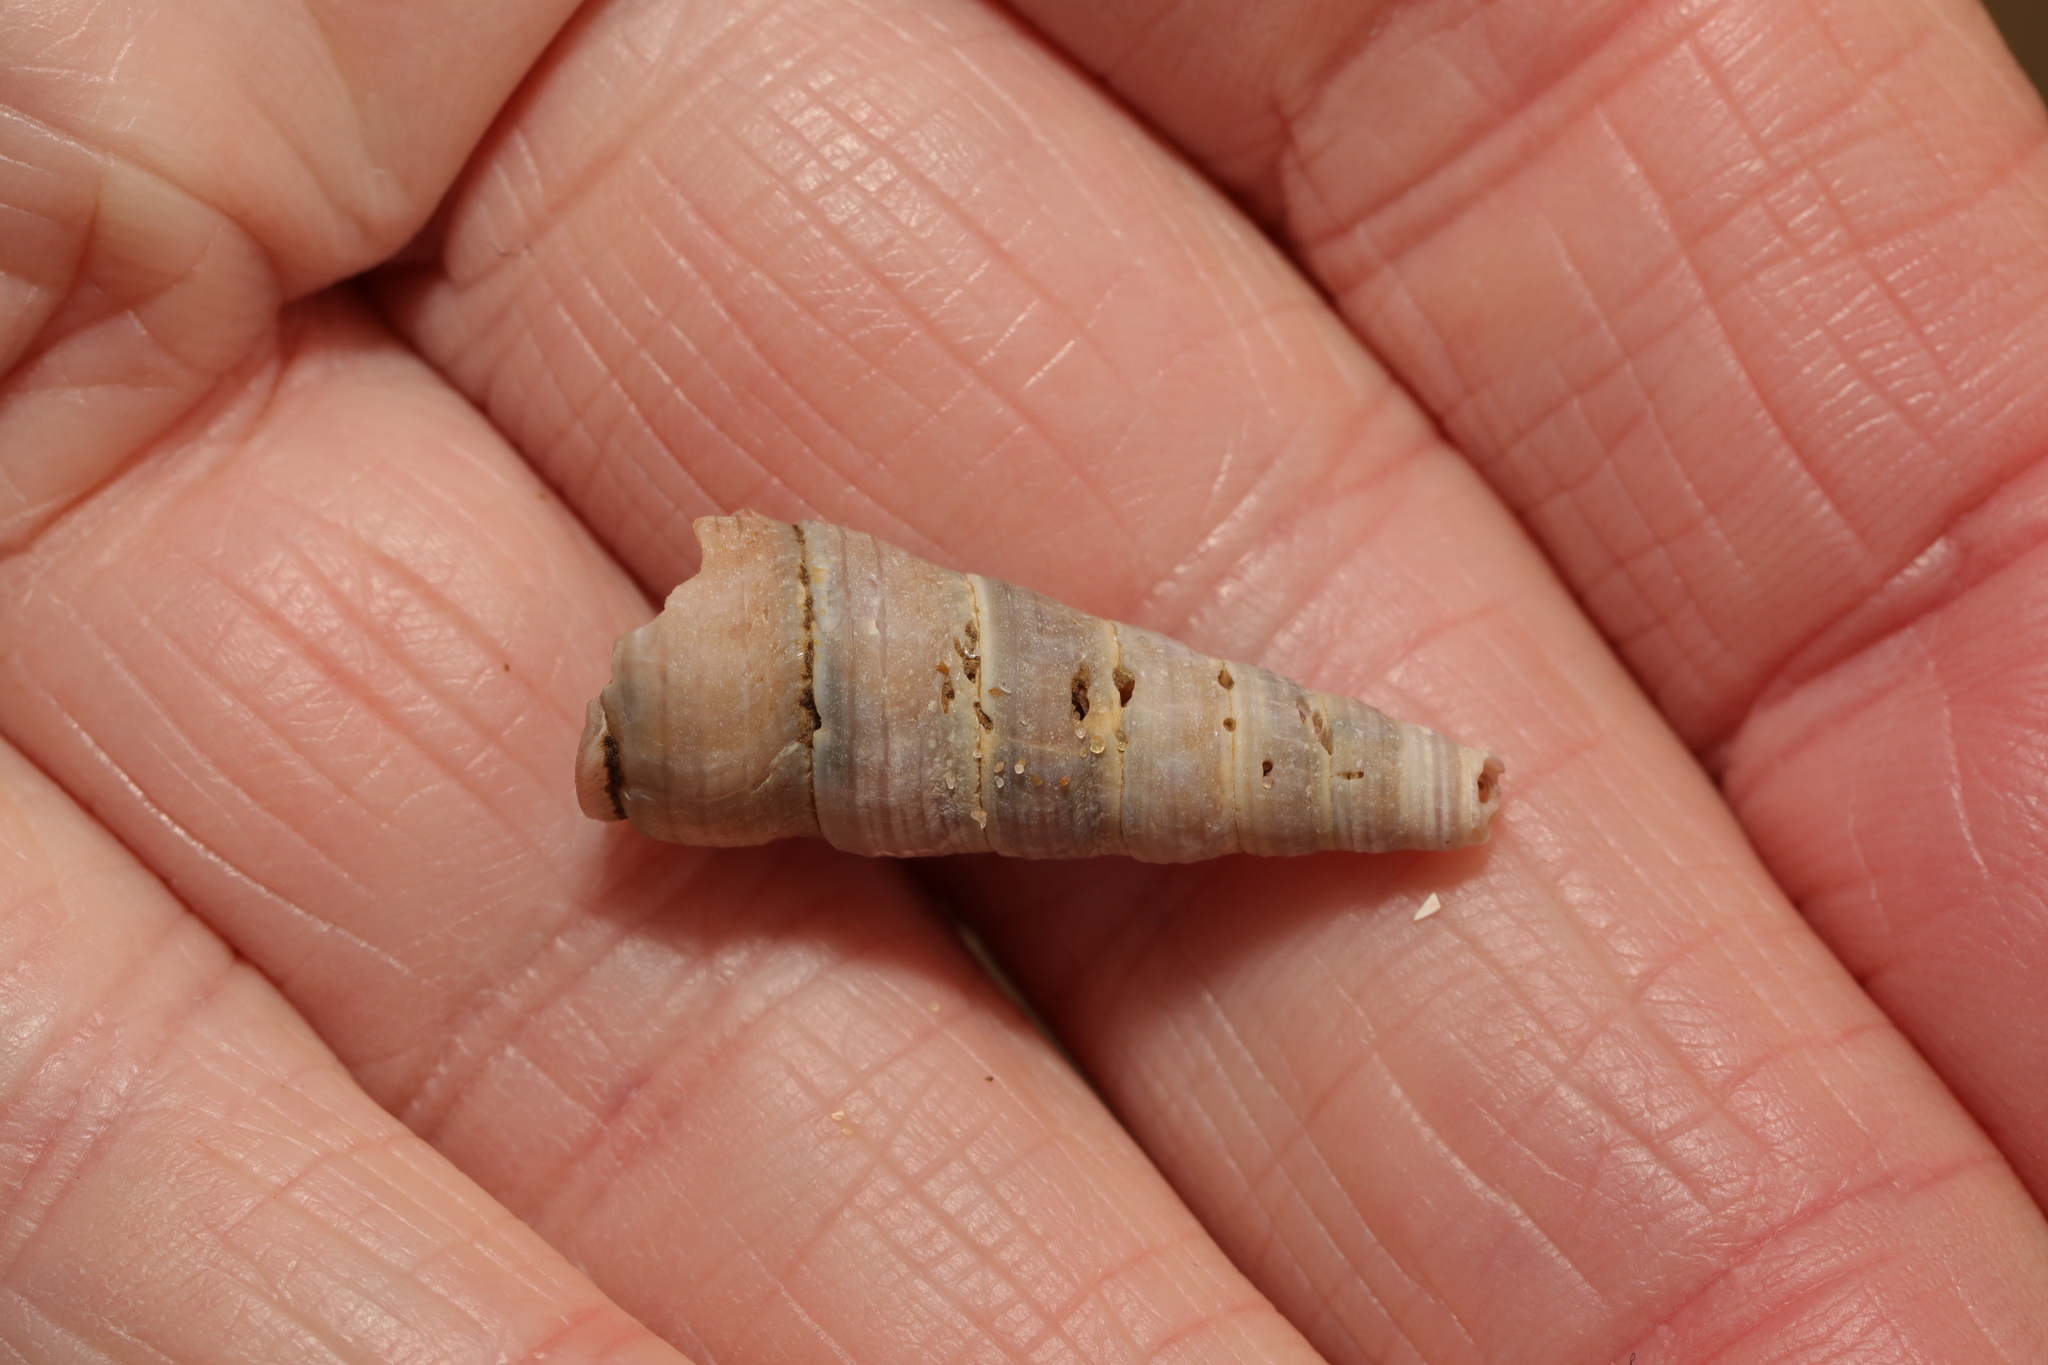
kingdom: Animalia
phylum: Mollusca
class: Gastropoda
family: Turritellidae
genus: Turritellinella
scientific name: Turritellinella tricarinata
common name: Auger shell
